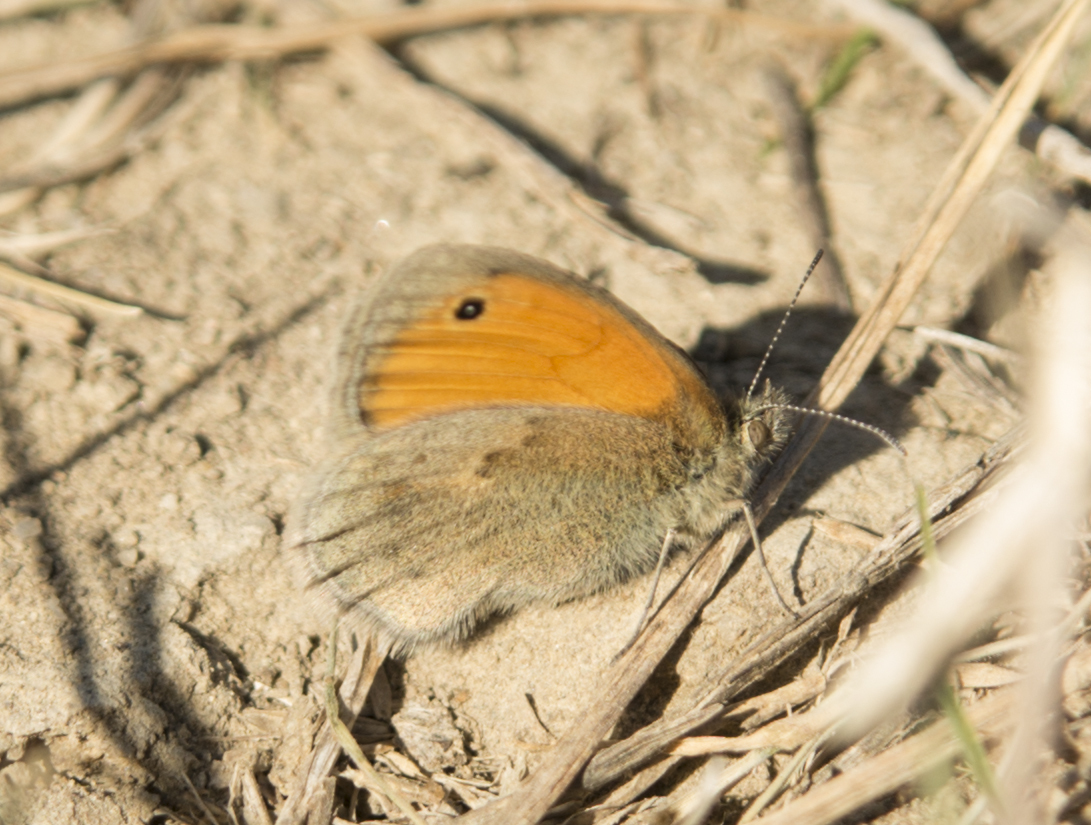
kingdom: Animalia
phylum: Arthropoda
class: Insecta
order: Lepidoptera
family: Nymphalidae
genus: Coenonympha
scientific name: Coenonympha pamphilus
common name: Small heath
